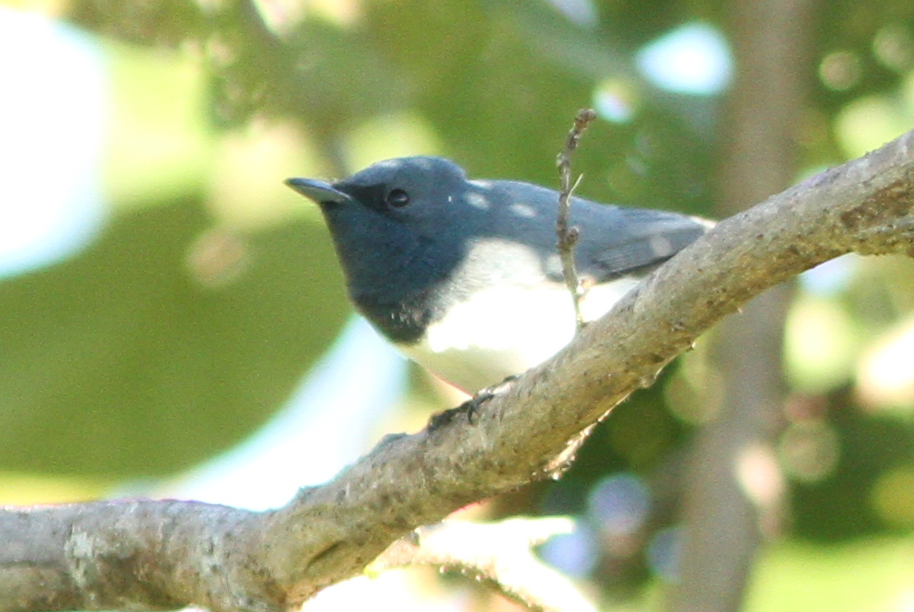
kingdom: Animalia
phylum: Chordata
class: Aves
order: Passeriformes
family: Monarchidae
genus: Myiagra
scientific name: Myiagra rubecula
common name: Leaden flycatcher
